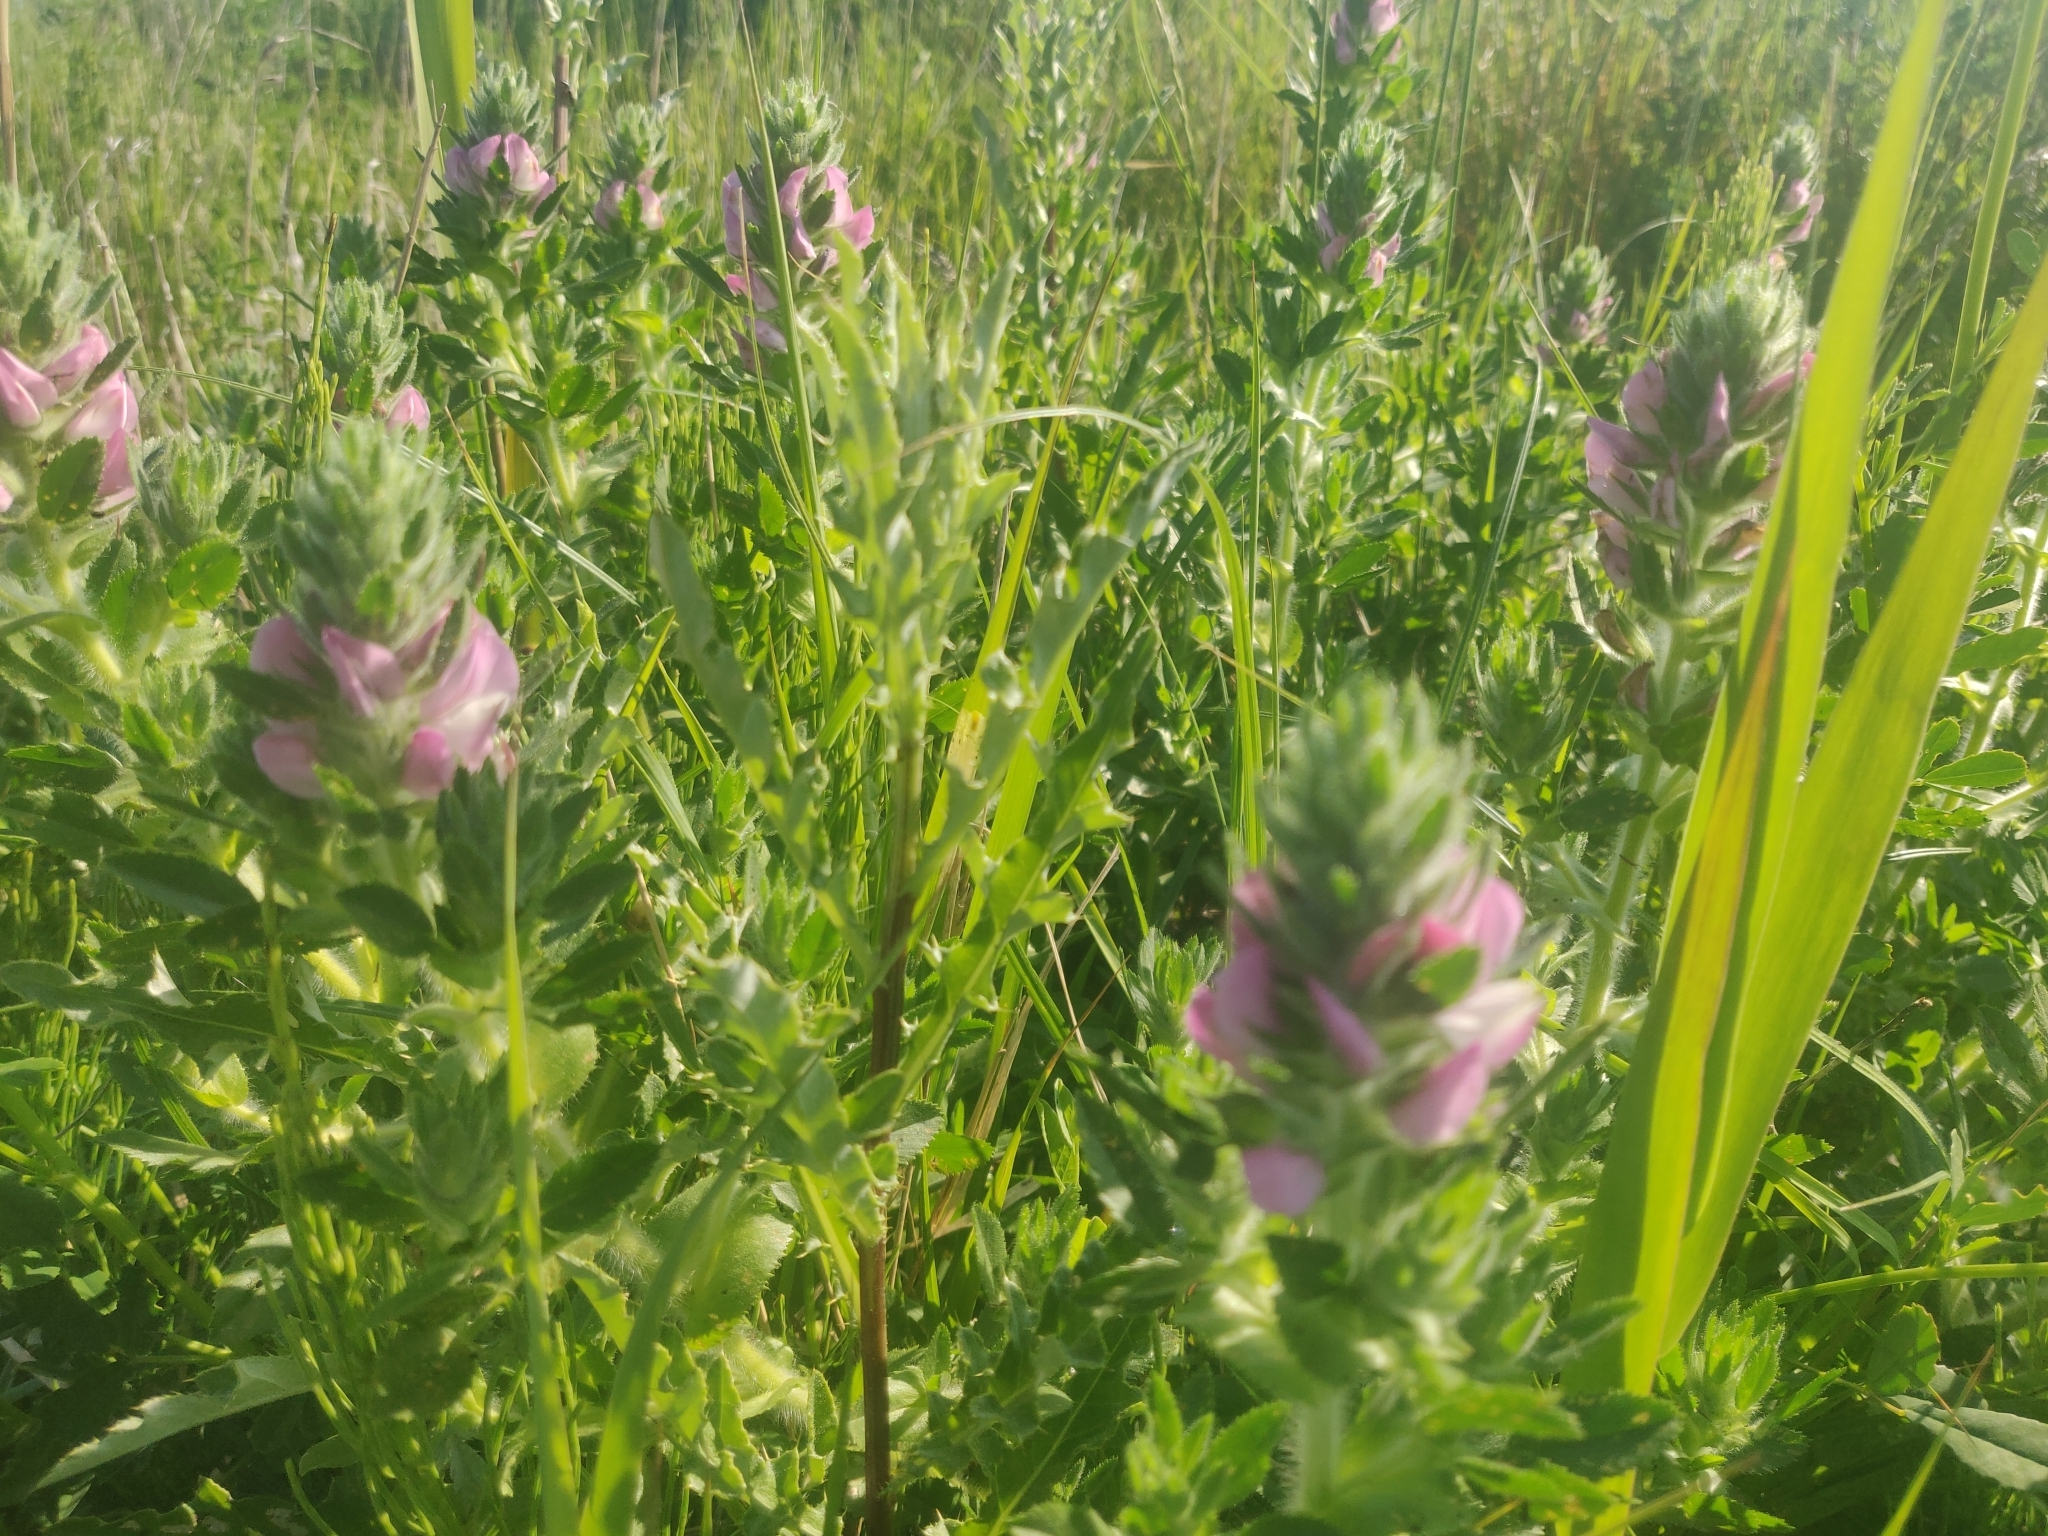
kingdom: Plantae
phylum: Tracheophyta
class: Magnoliopsida
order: Fabales
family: Fabaceae
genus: Ononis
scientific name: Ononis arvensis
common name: Field restharrow
